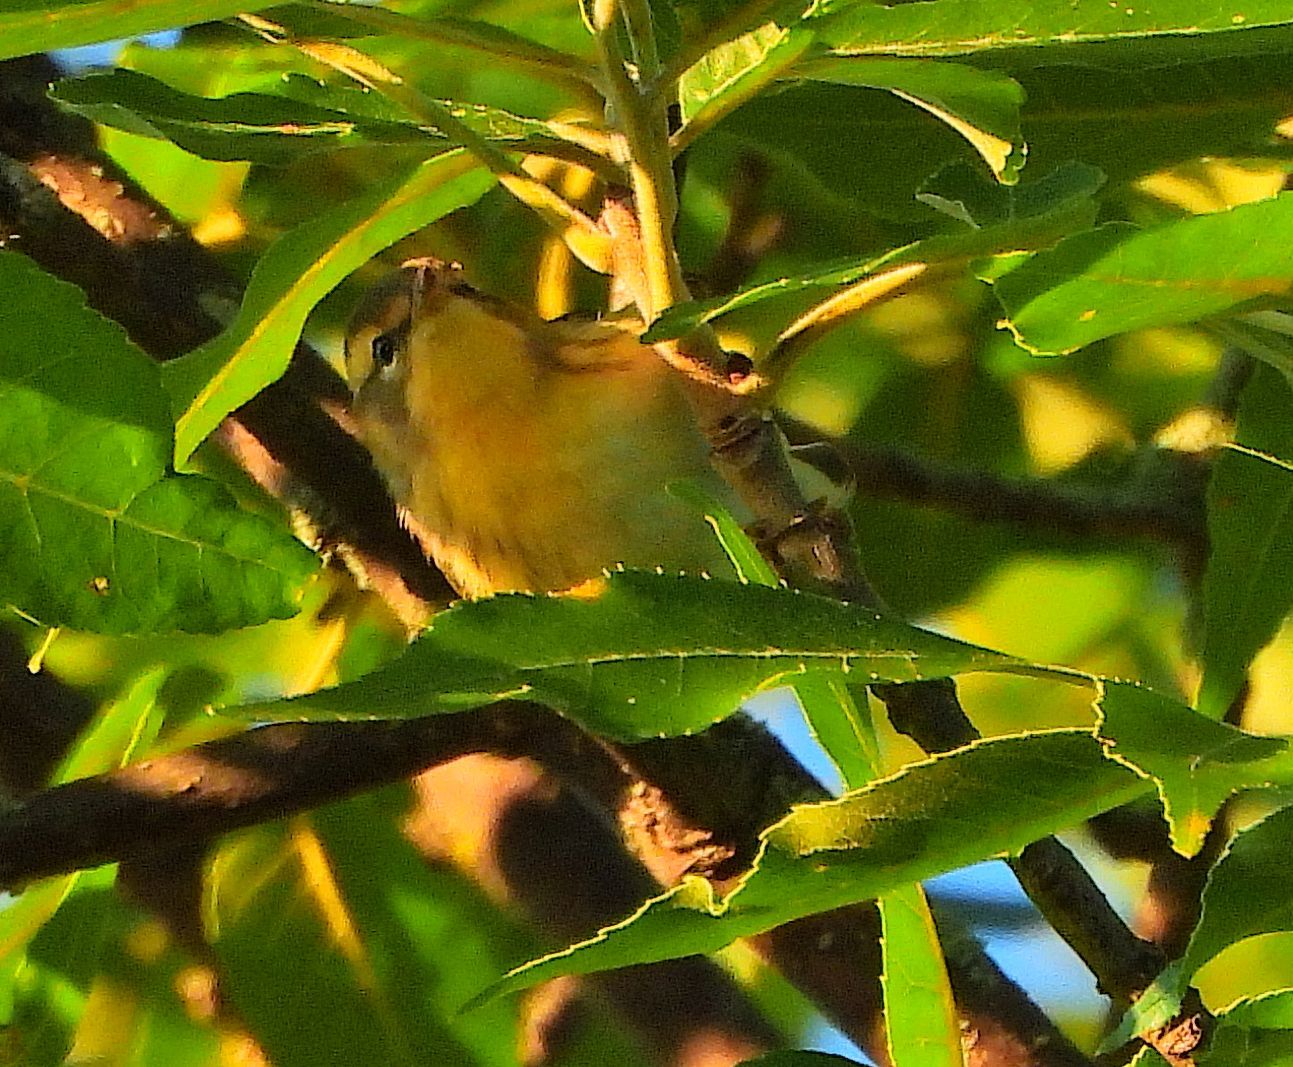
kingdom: Animalia
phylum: Chordata
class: Aves
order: Passeriformes
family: Parulidae
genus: Setophaga
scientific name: Setophaga fusca
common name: Blackburnian warbler
